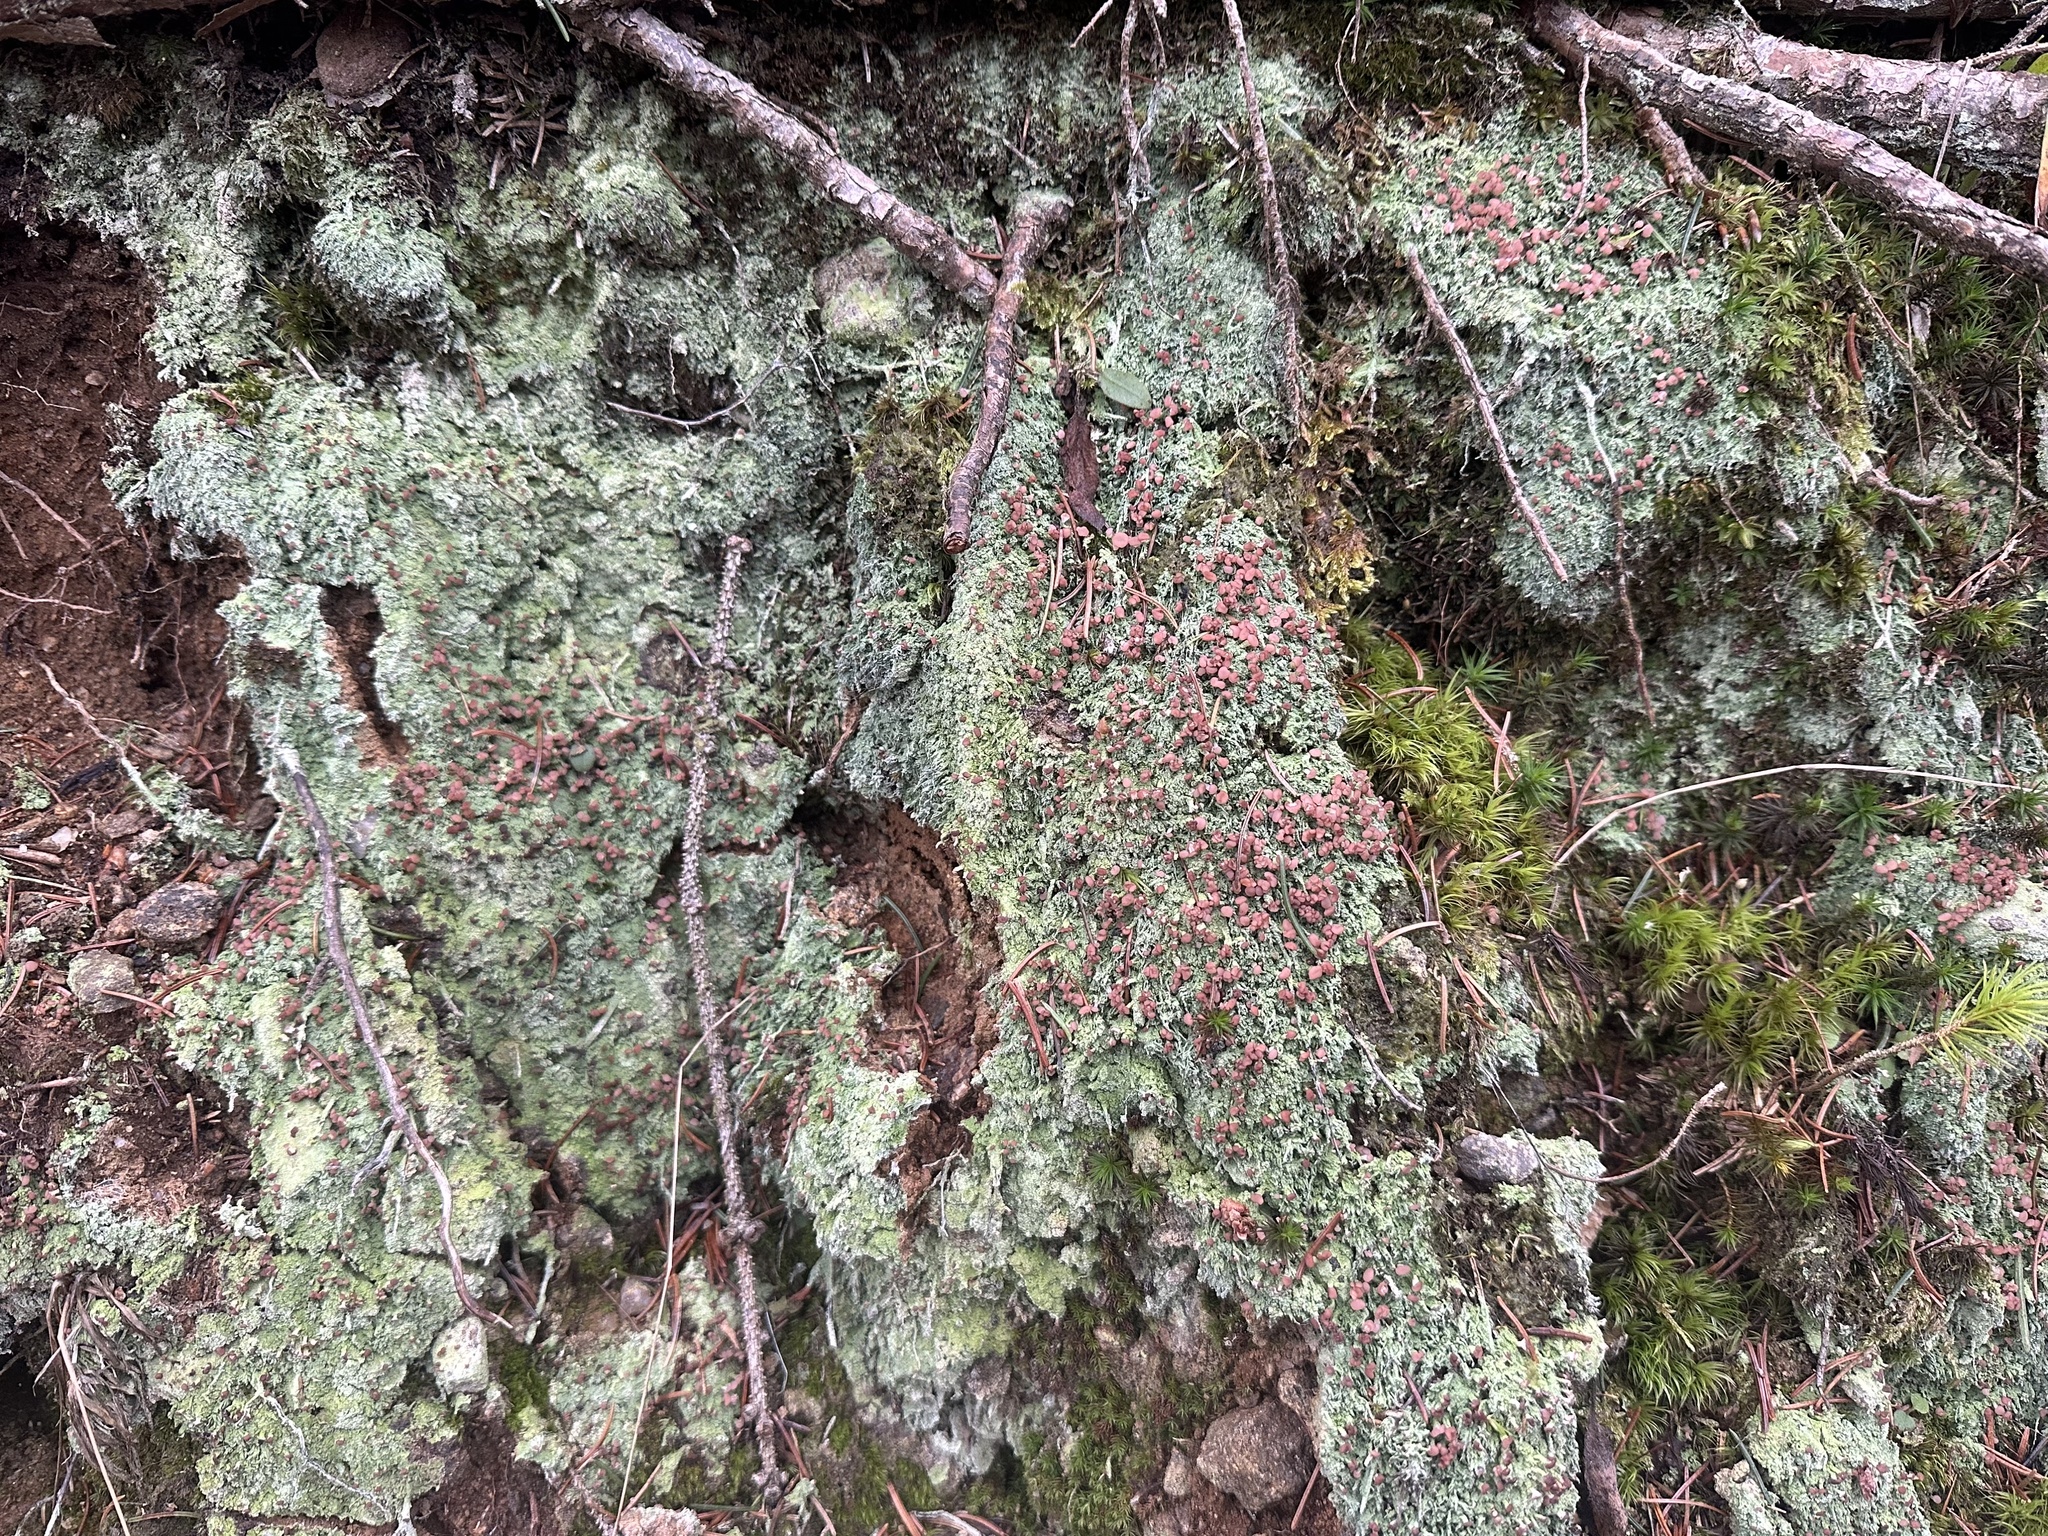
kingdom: Fungi
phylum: Ascomycota
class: Lecanoromycetes
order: Baeomycetales
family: Baeomycetaceae
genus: Baeomyces
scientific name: Baeomyces rufus
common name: Brown beret lichen
